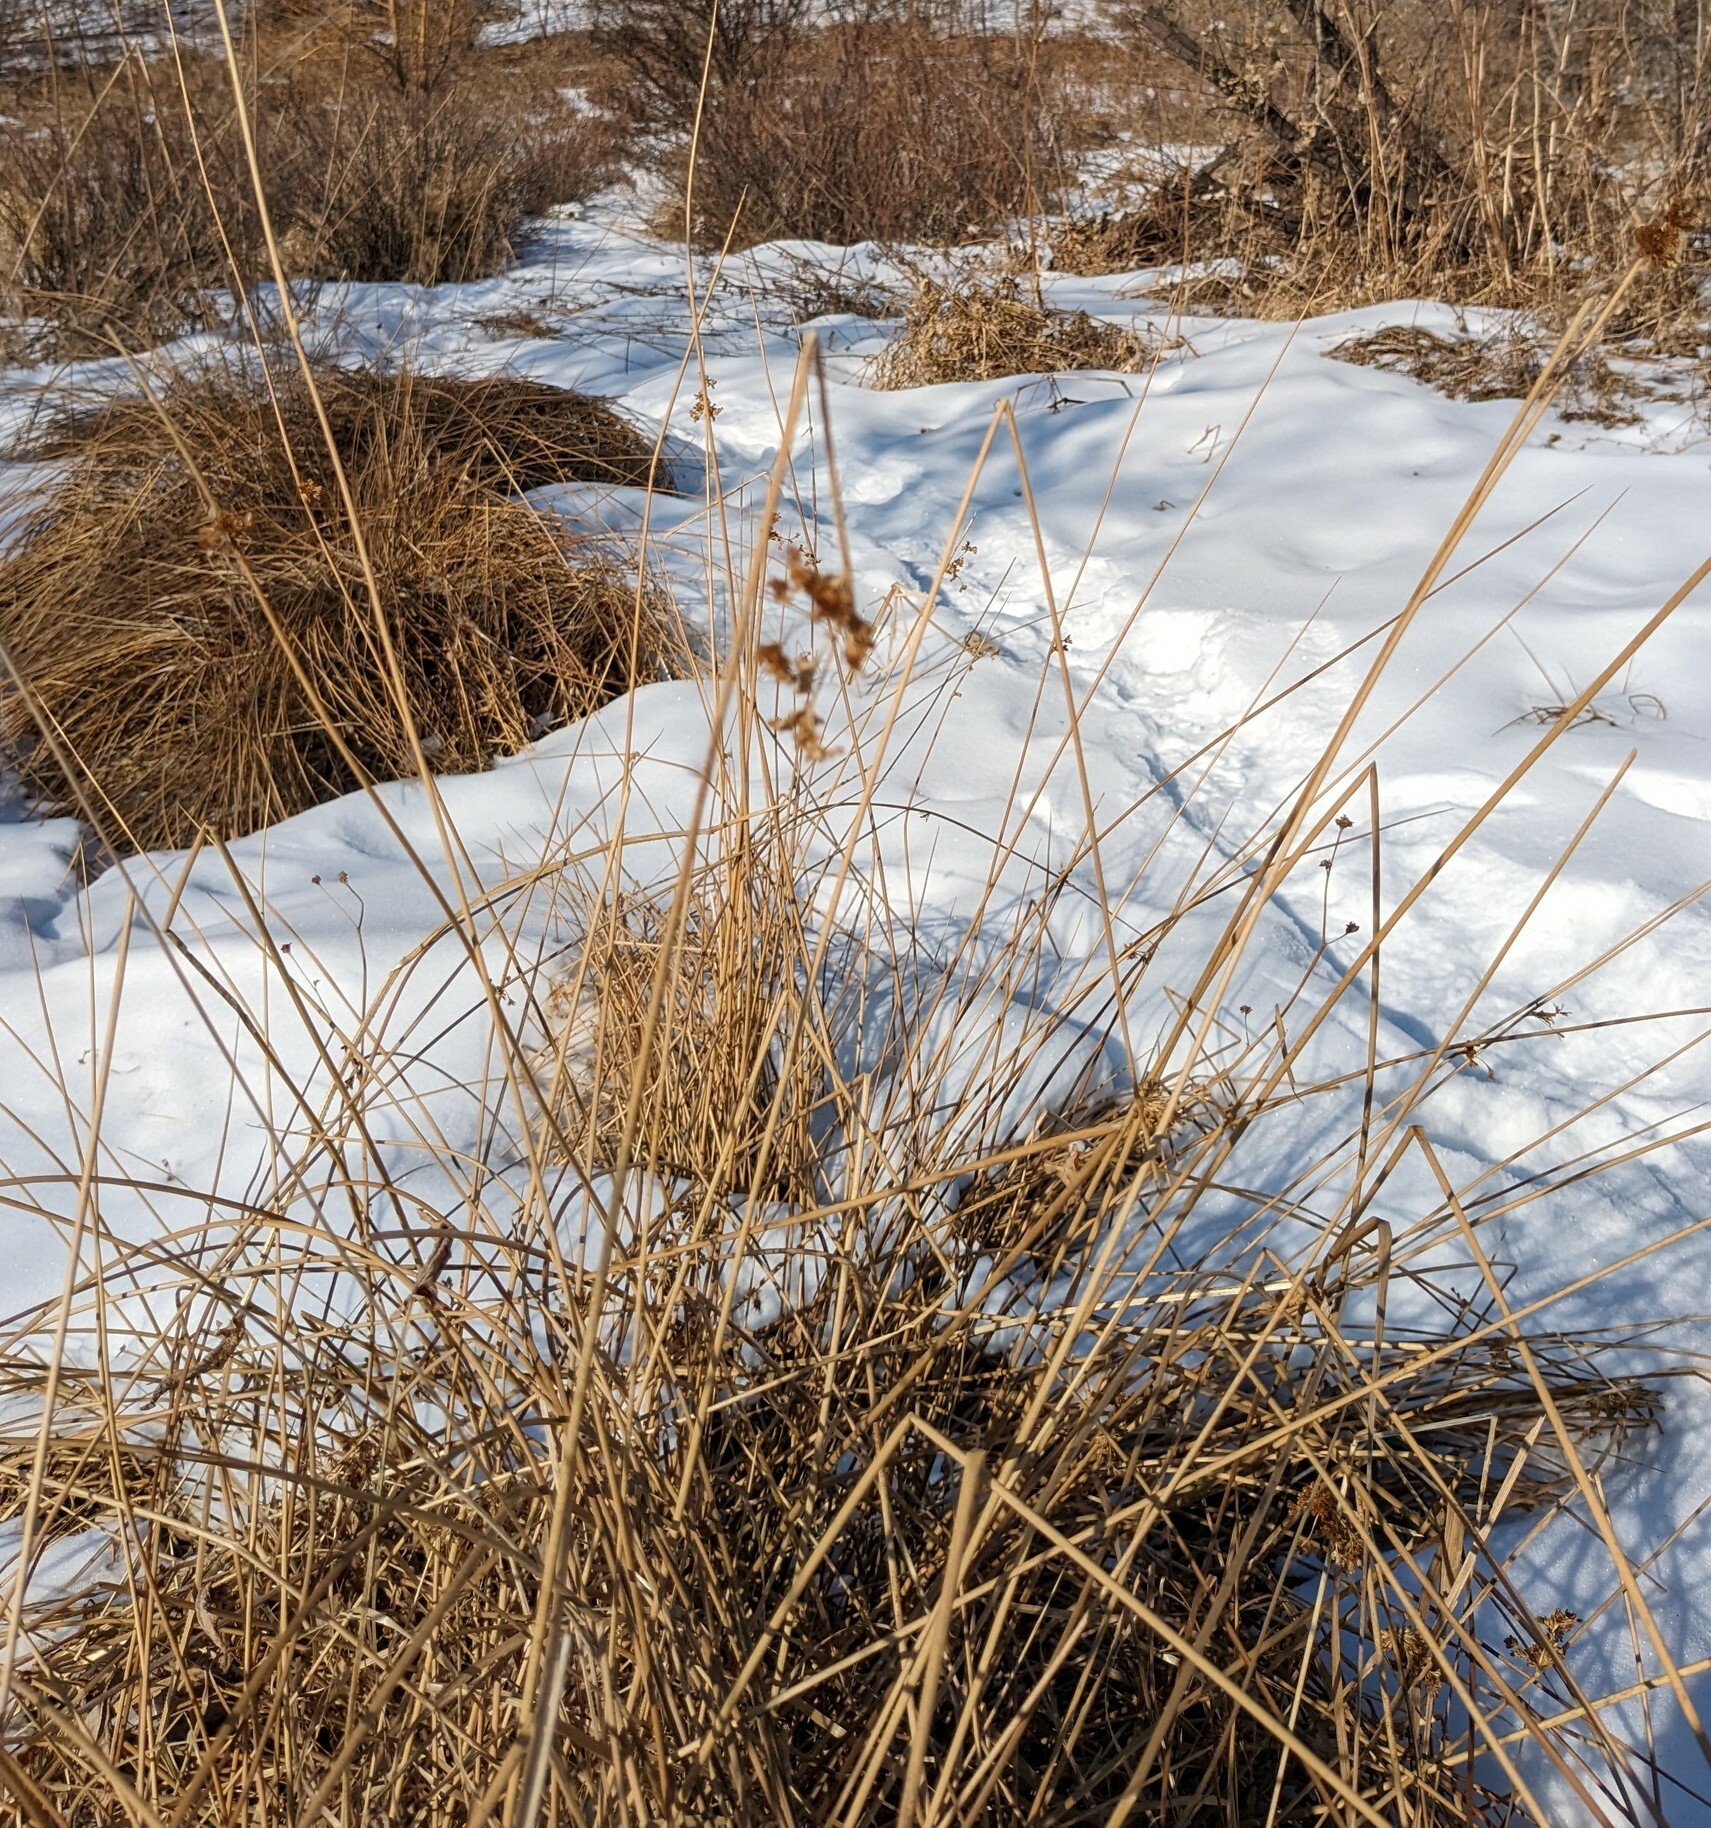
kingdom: Plantae
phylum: Tracheophyta
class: Liliopsida
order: Poales
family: Juncaceae
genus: Juncus
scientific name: Juncus decipiens
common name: Lamp rush
